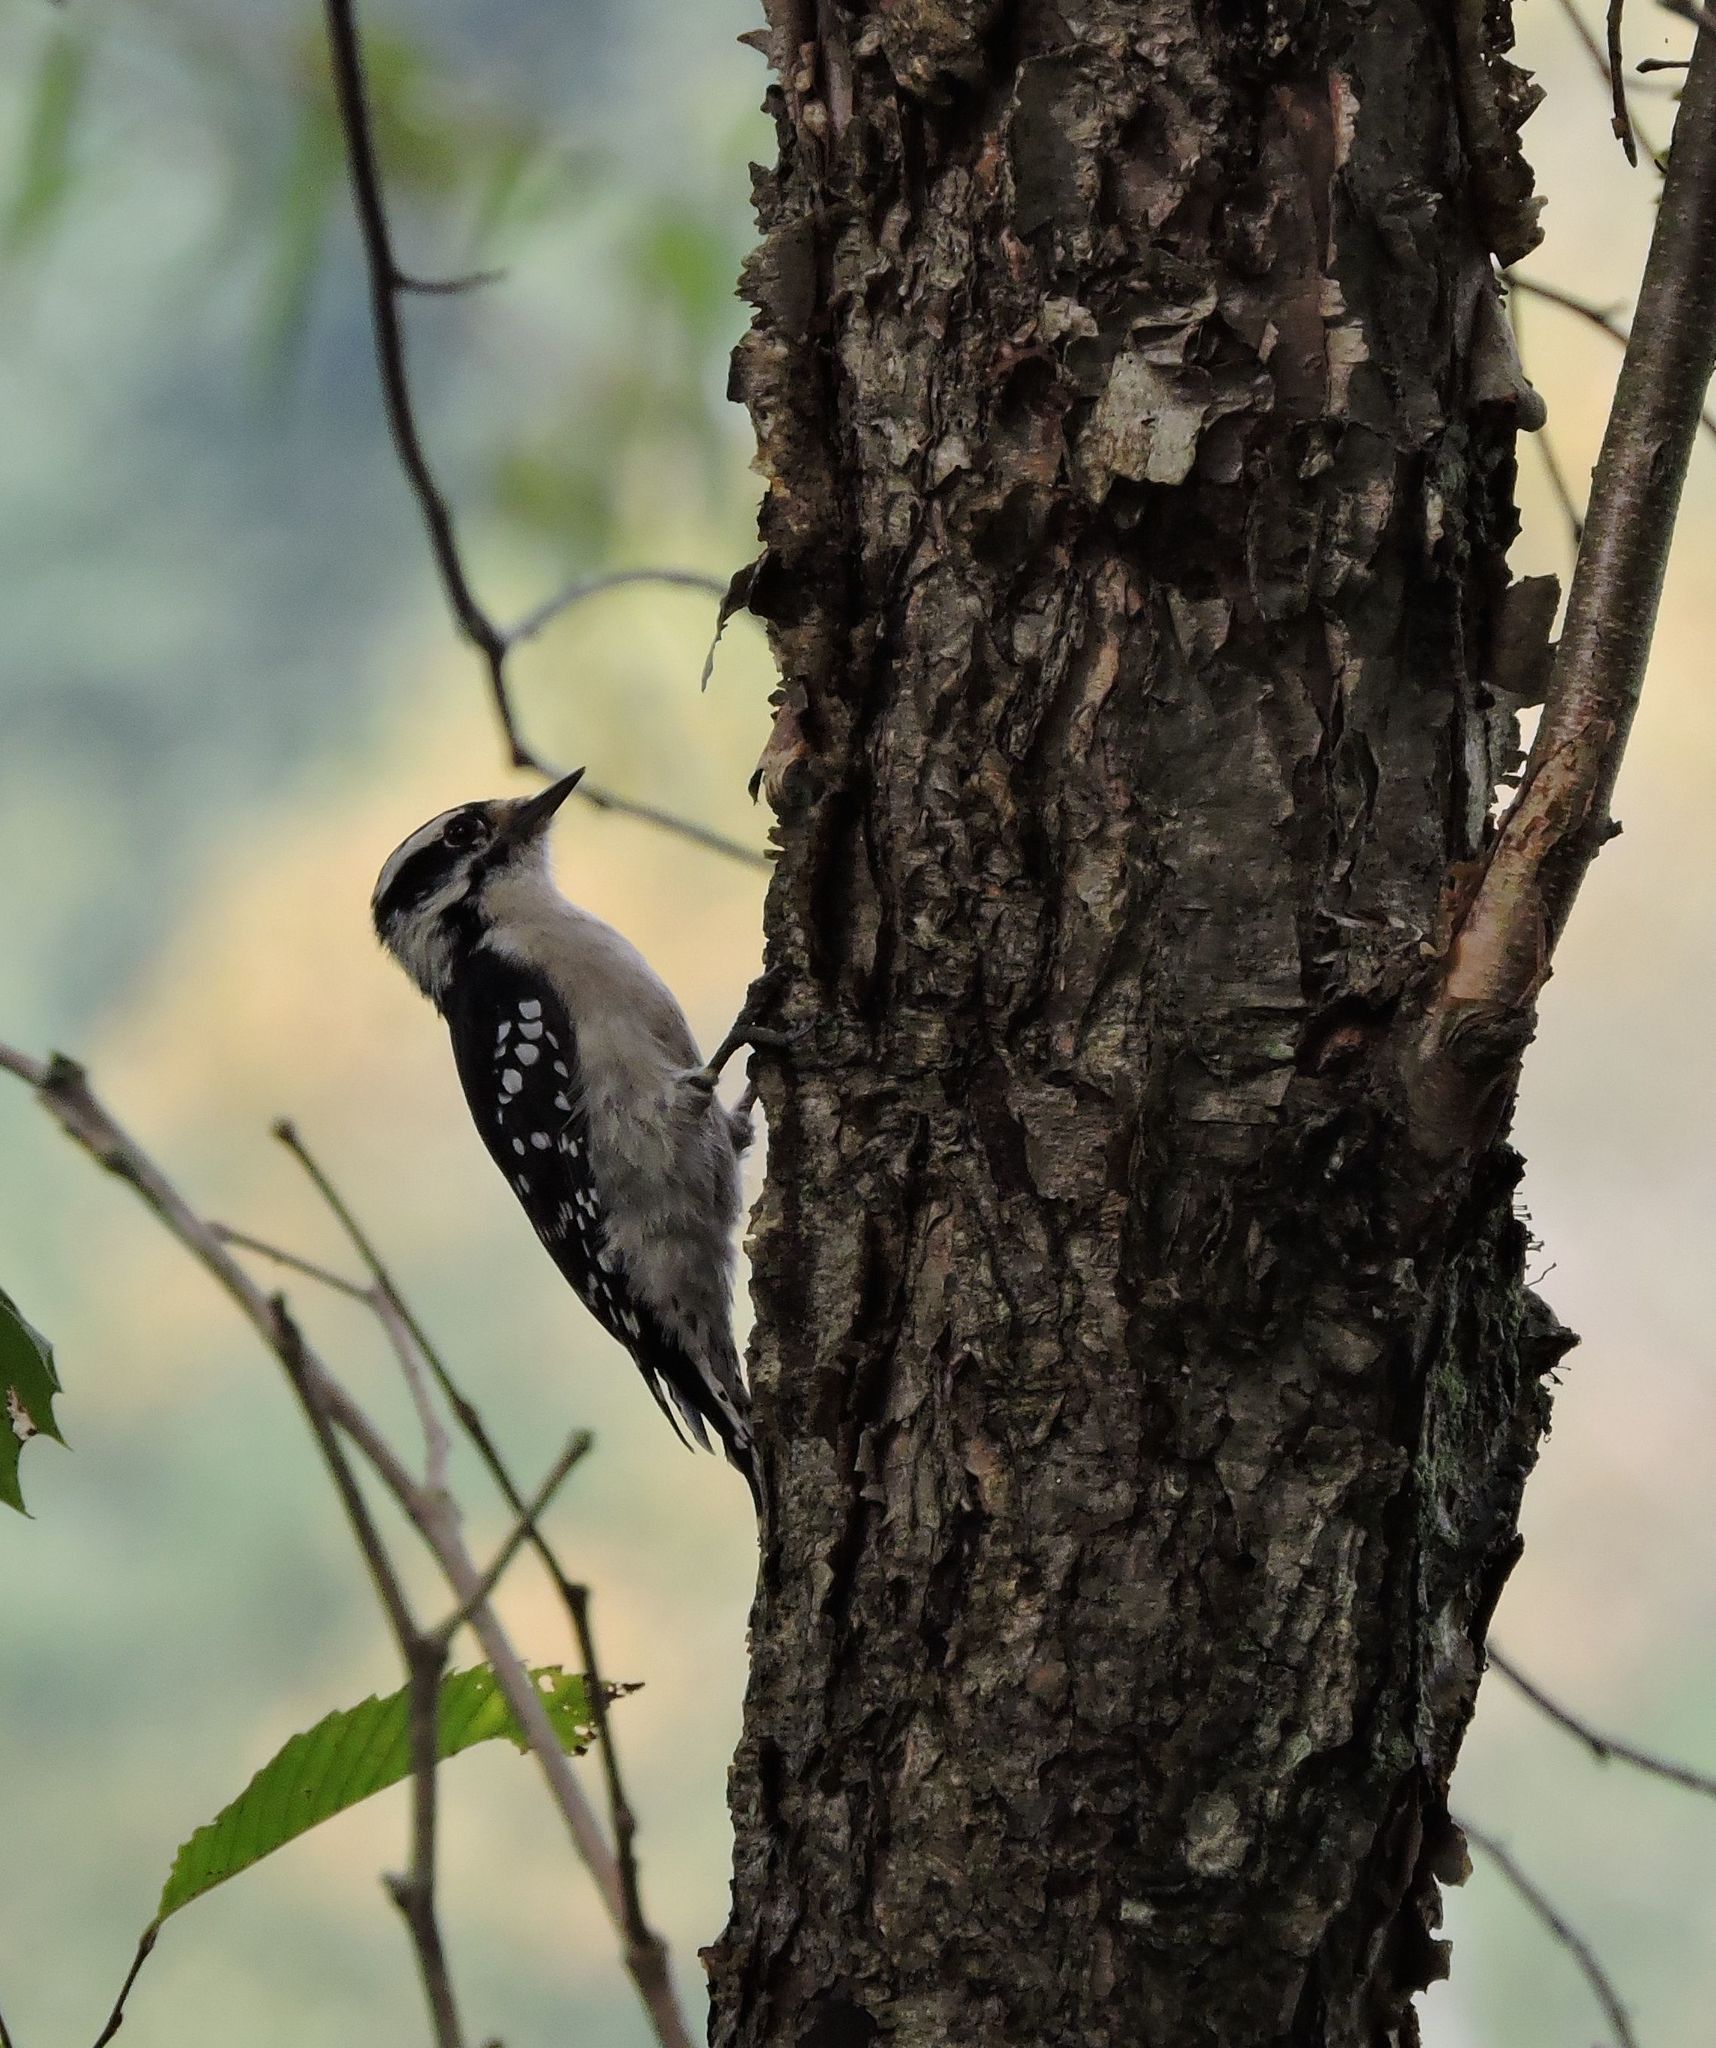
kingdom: Animalia
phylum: Chordata
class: Aves
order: Piciformes
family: Picidae
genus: Dryobates
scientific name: Dryobates pubescens
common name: Downy woodpecker
